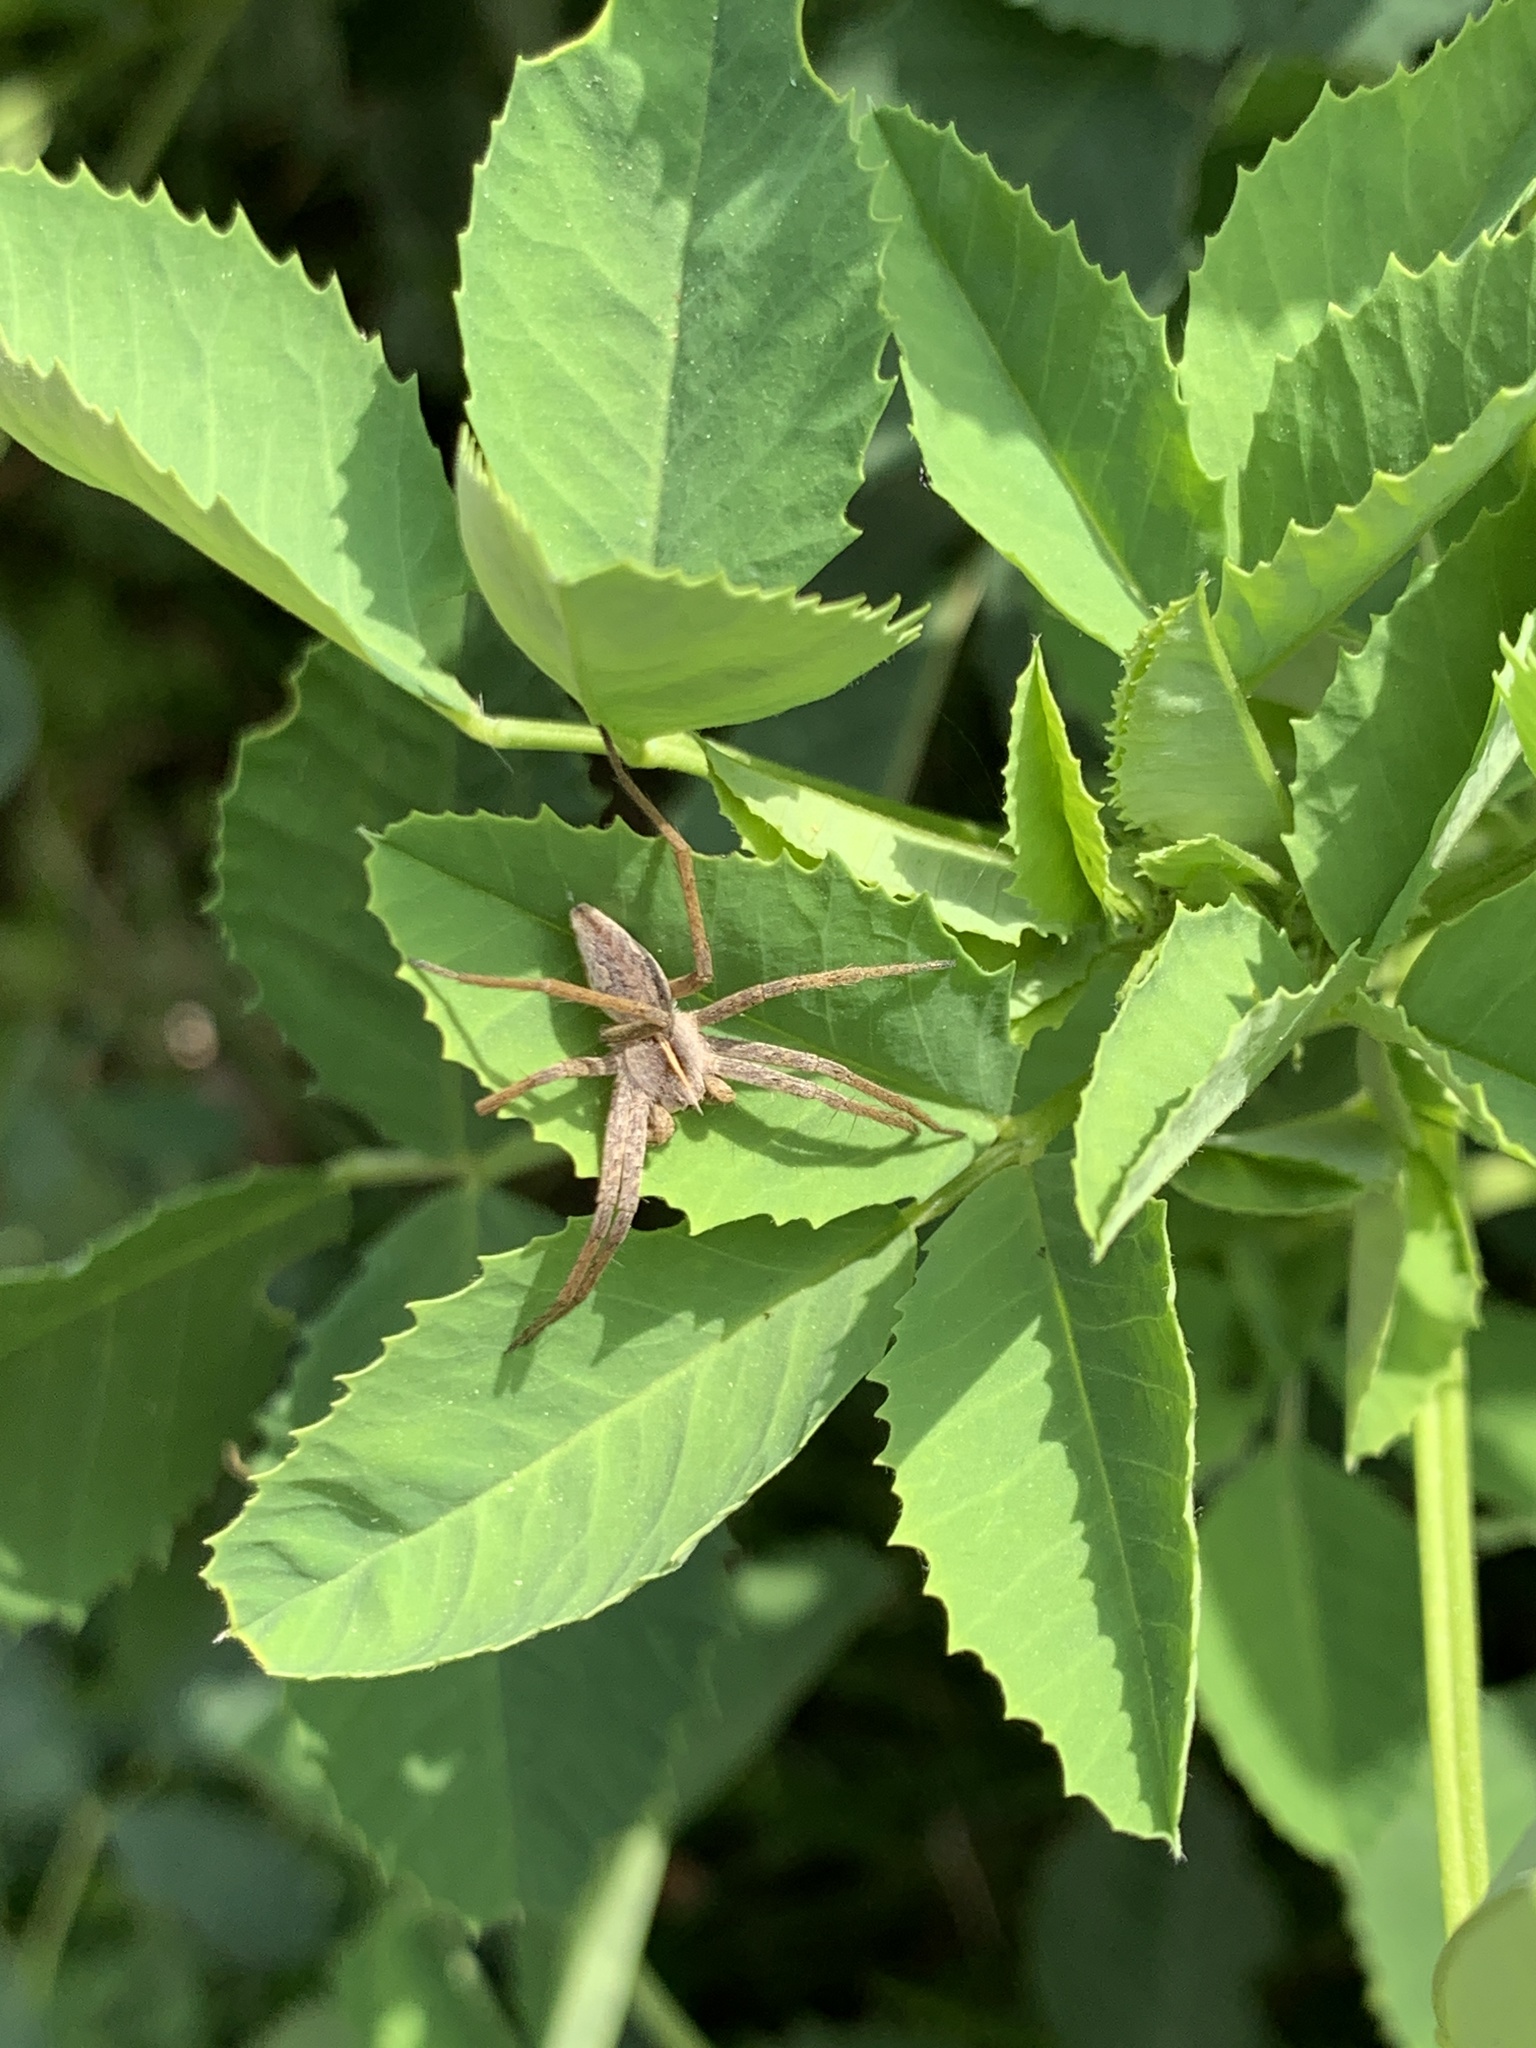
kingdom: Animalia
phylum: Arthropoda
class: Arachnida
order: Araneae
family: Pisauridae
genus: Pisaura
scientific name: Pisaura mirabilis
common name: Tent spider
